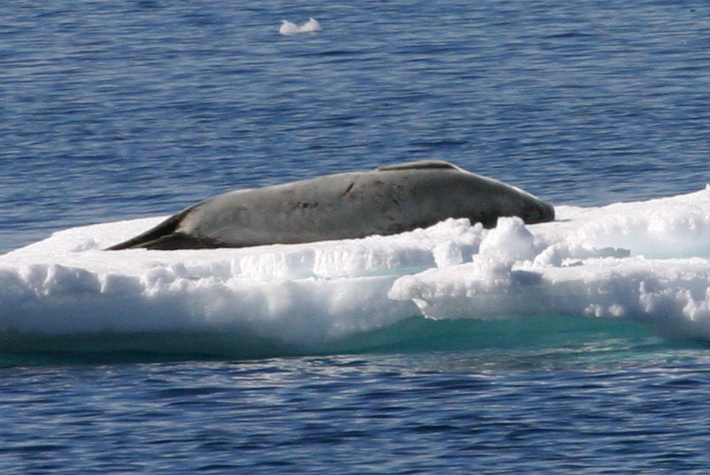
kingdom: Animalia
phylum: Chordata
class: Mammalia
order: Carnivora
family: Phocidae
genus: Lobodon
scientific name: Lobodon carcinophaga
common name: Crabeater seal
